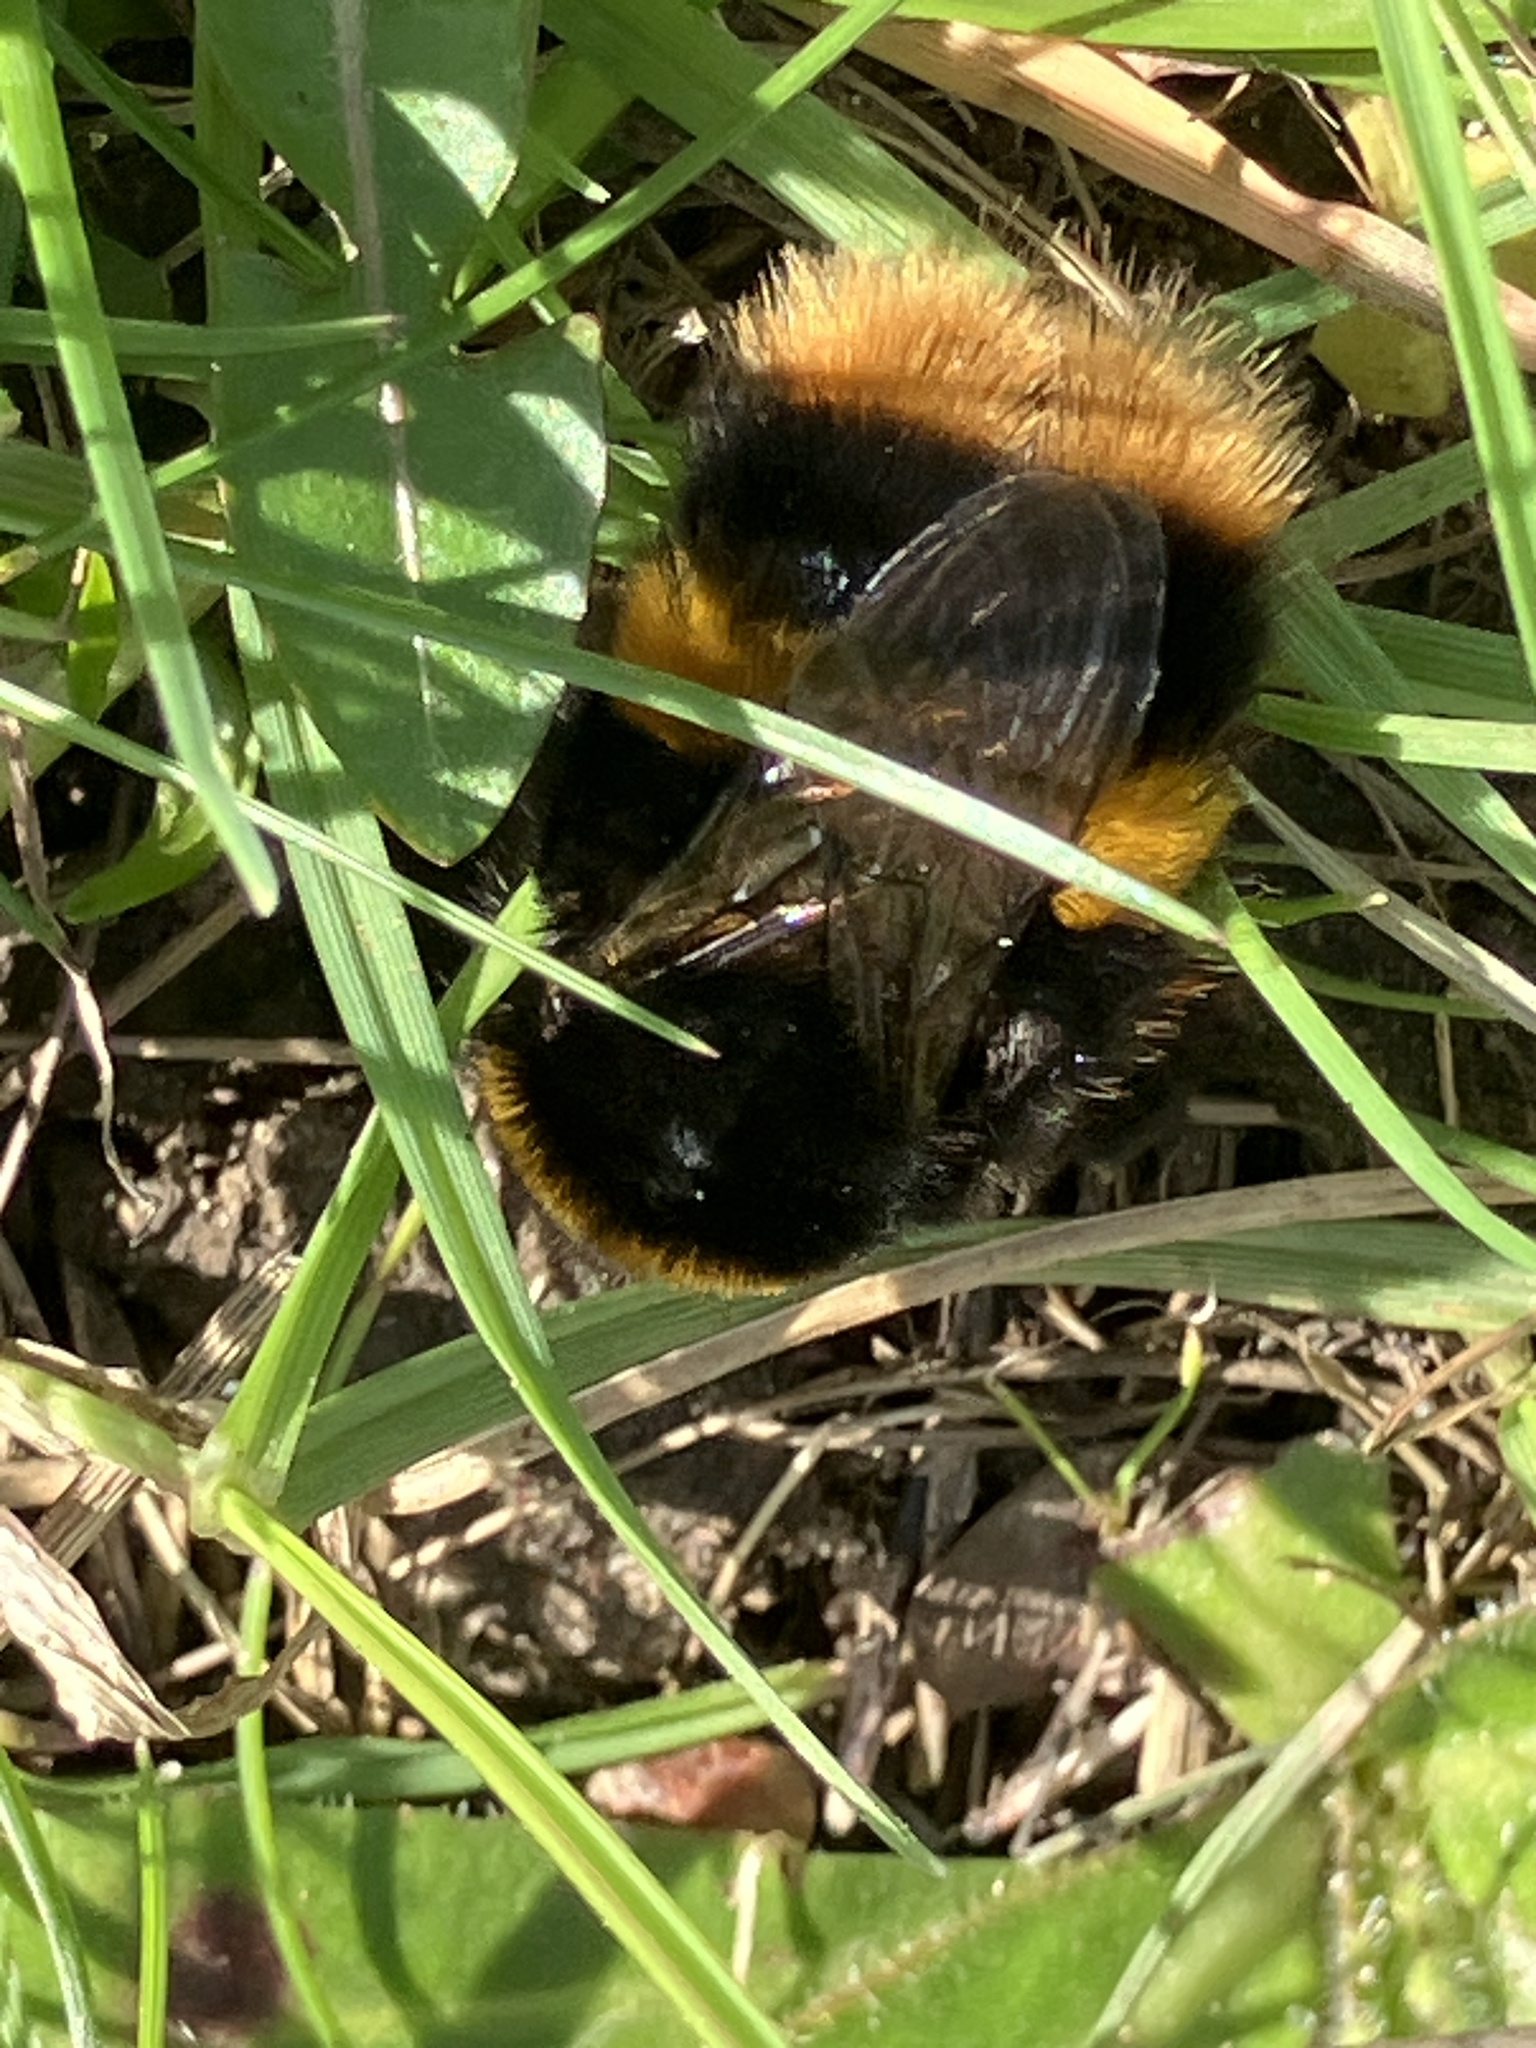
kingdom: Animalia
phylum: Arthropoda
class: Insecta
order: Hymenoptera
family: Apidae
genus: Bombus
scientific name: Bombus terrestris
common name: Buff-tailed bumblebee
